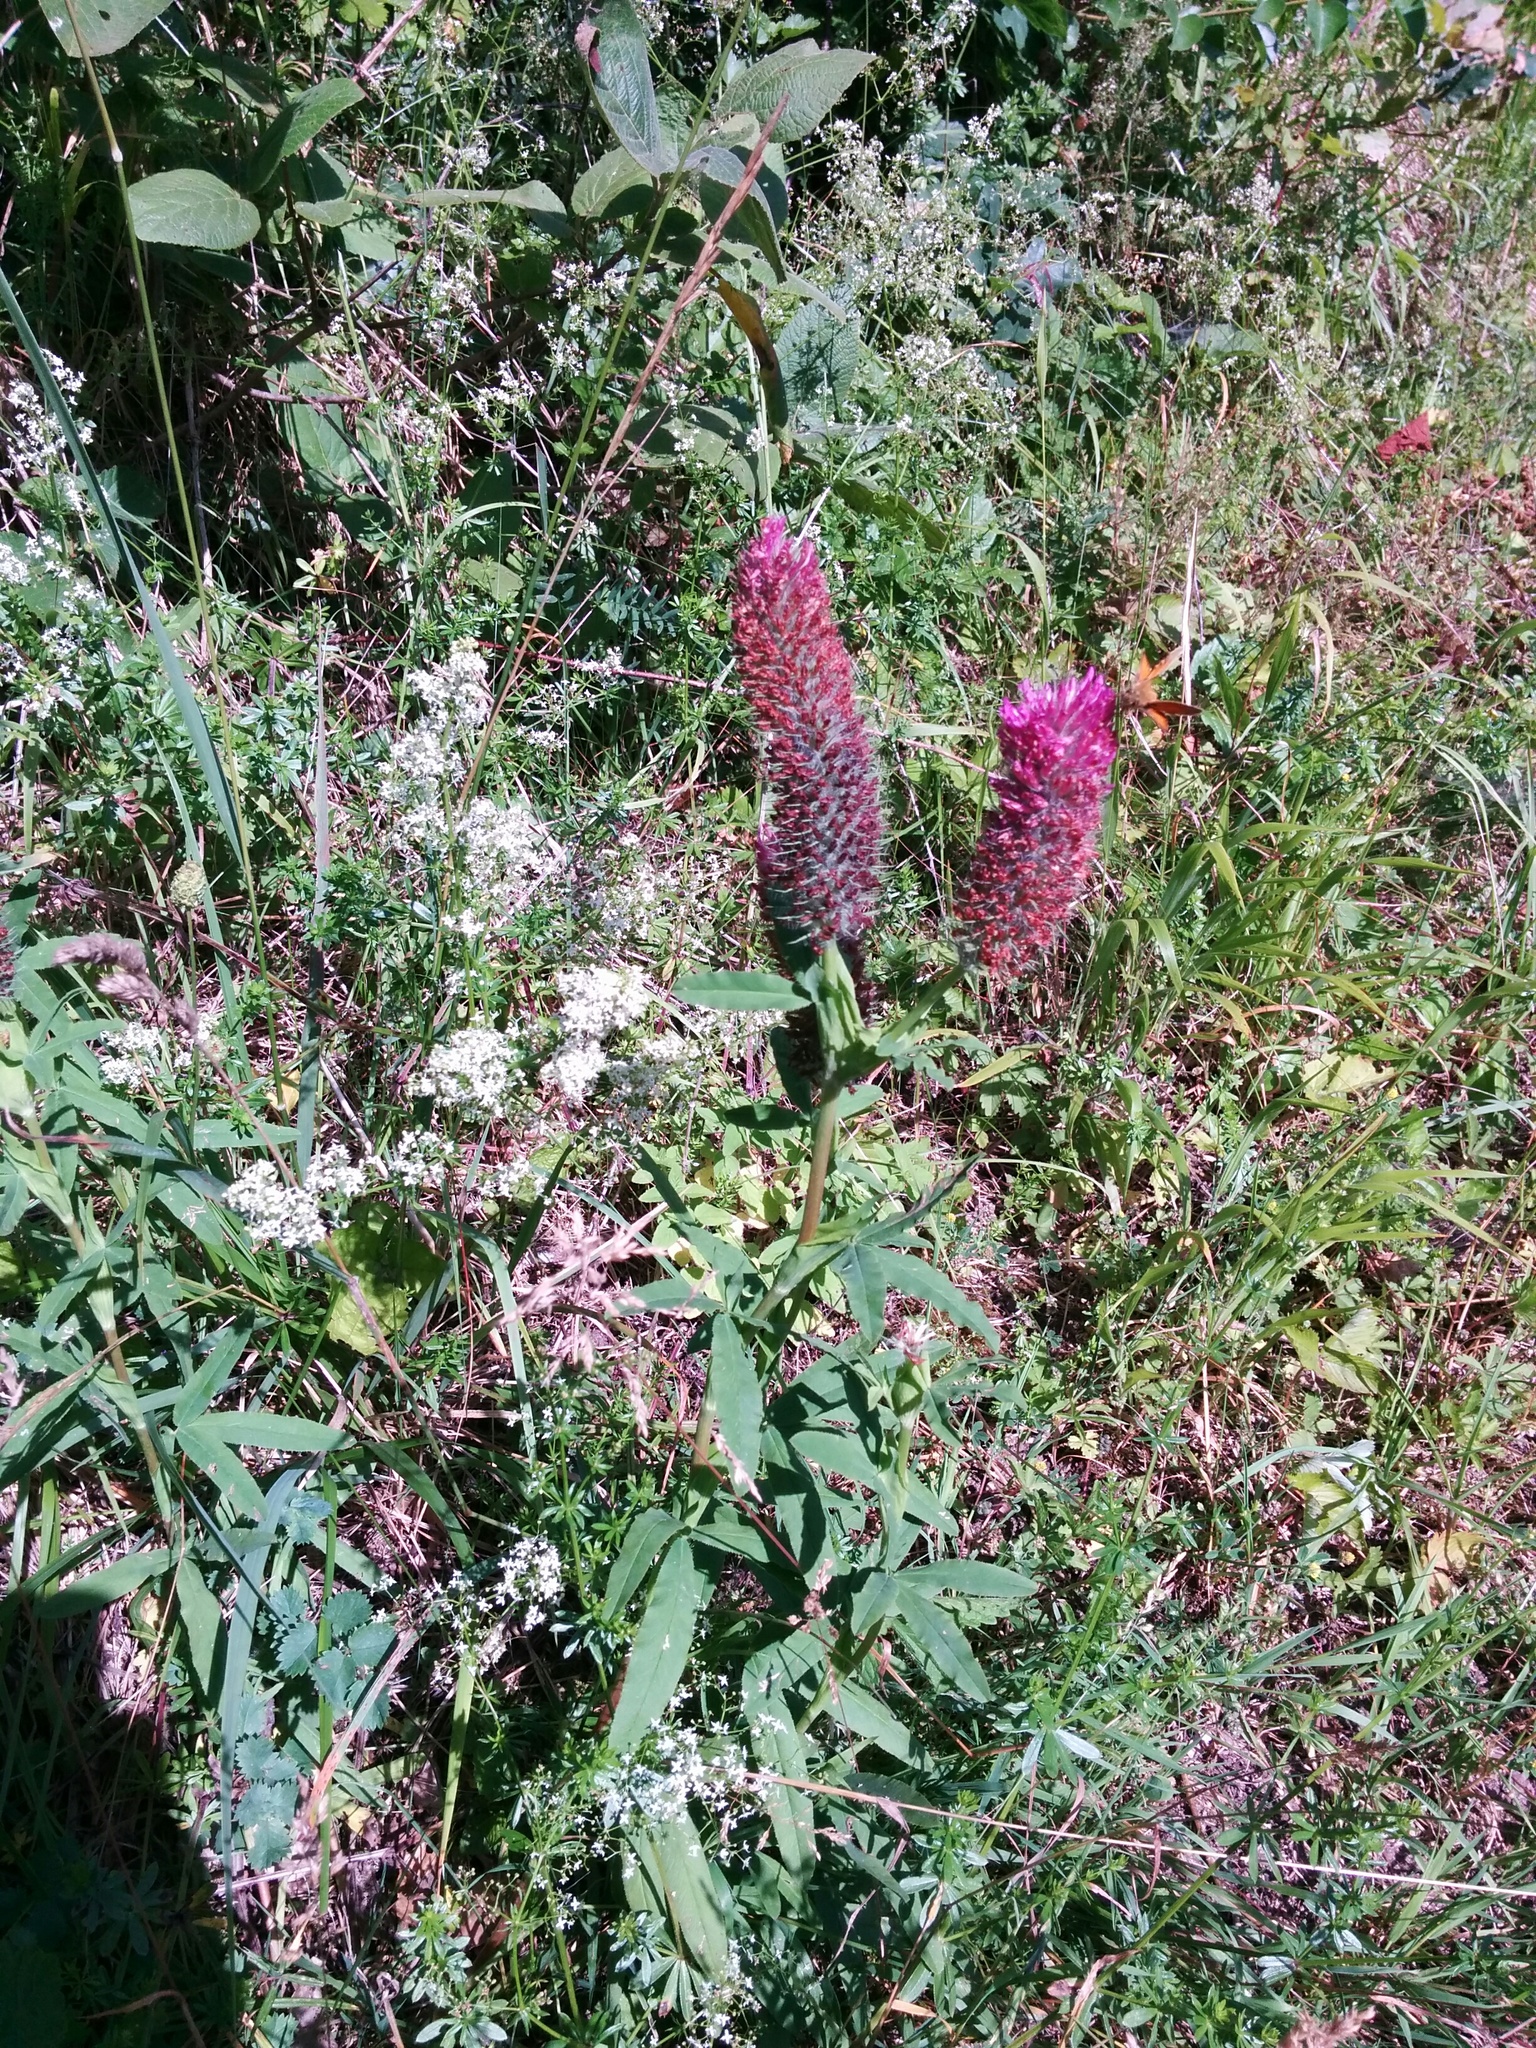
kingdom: Plantae
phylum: Tracheophyta
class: Magnoliopsida
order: Fabales
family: Fabaceae
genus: Trifolium
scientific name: Trifolium rubens
